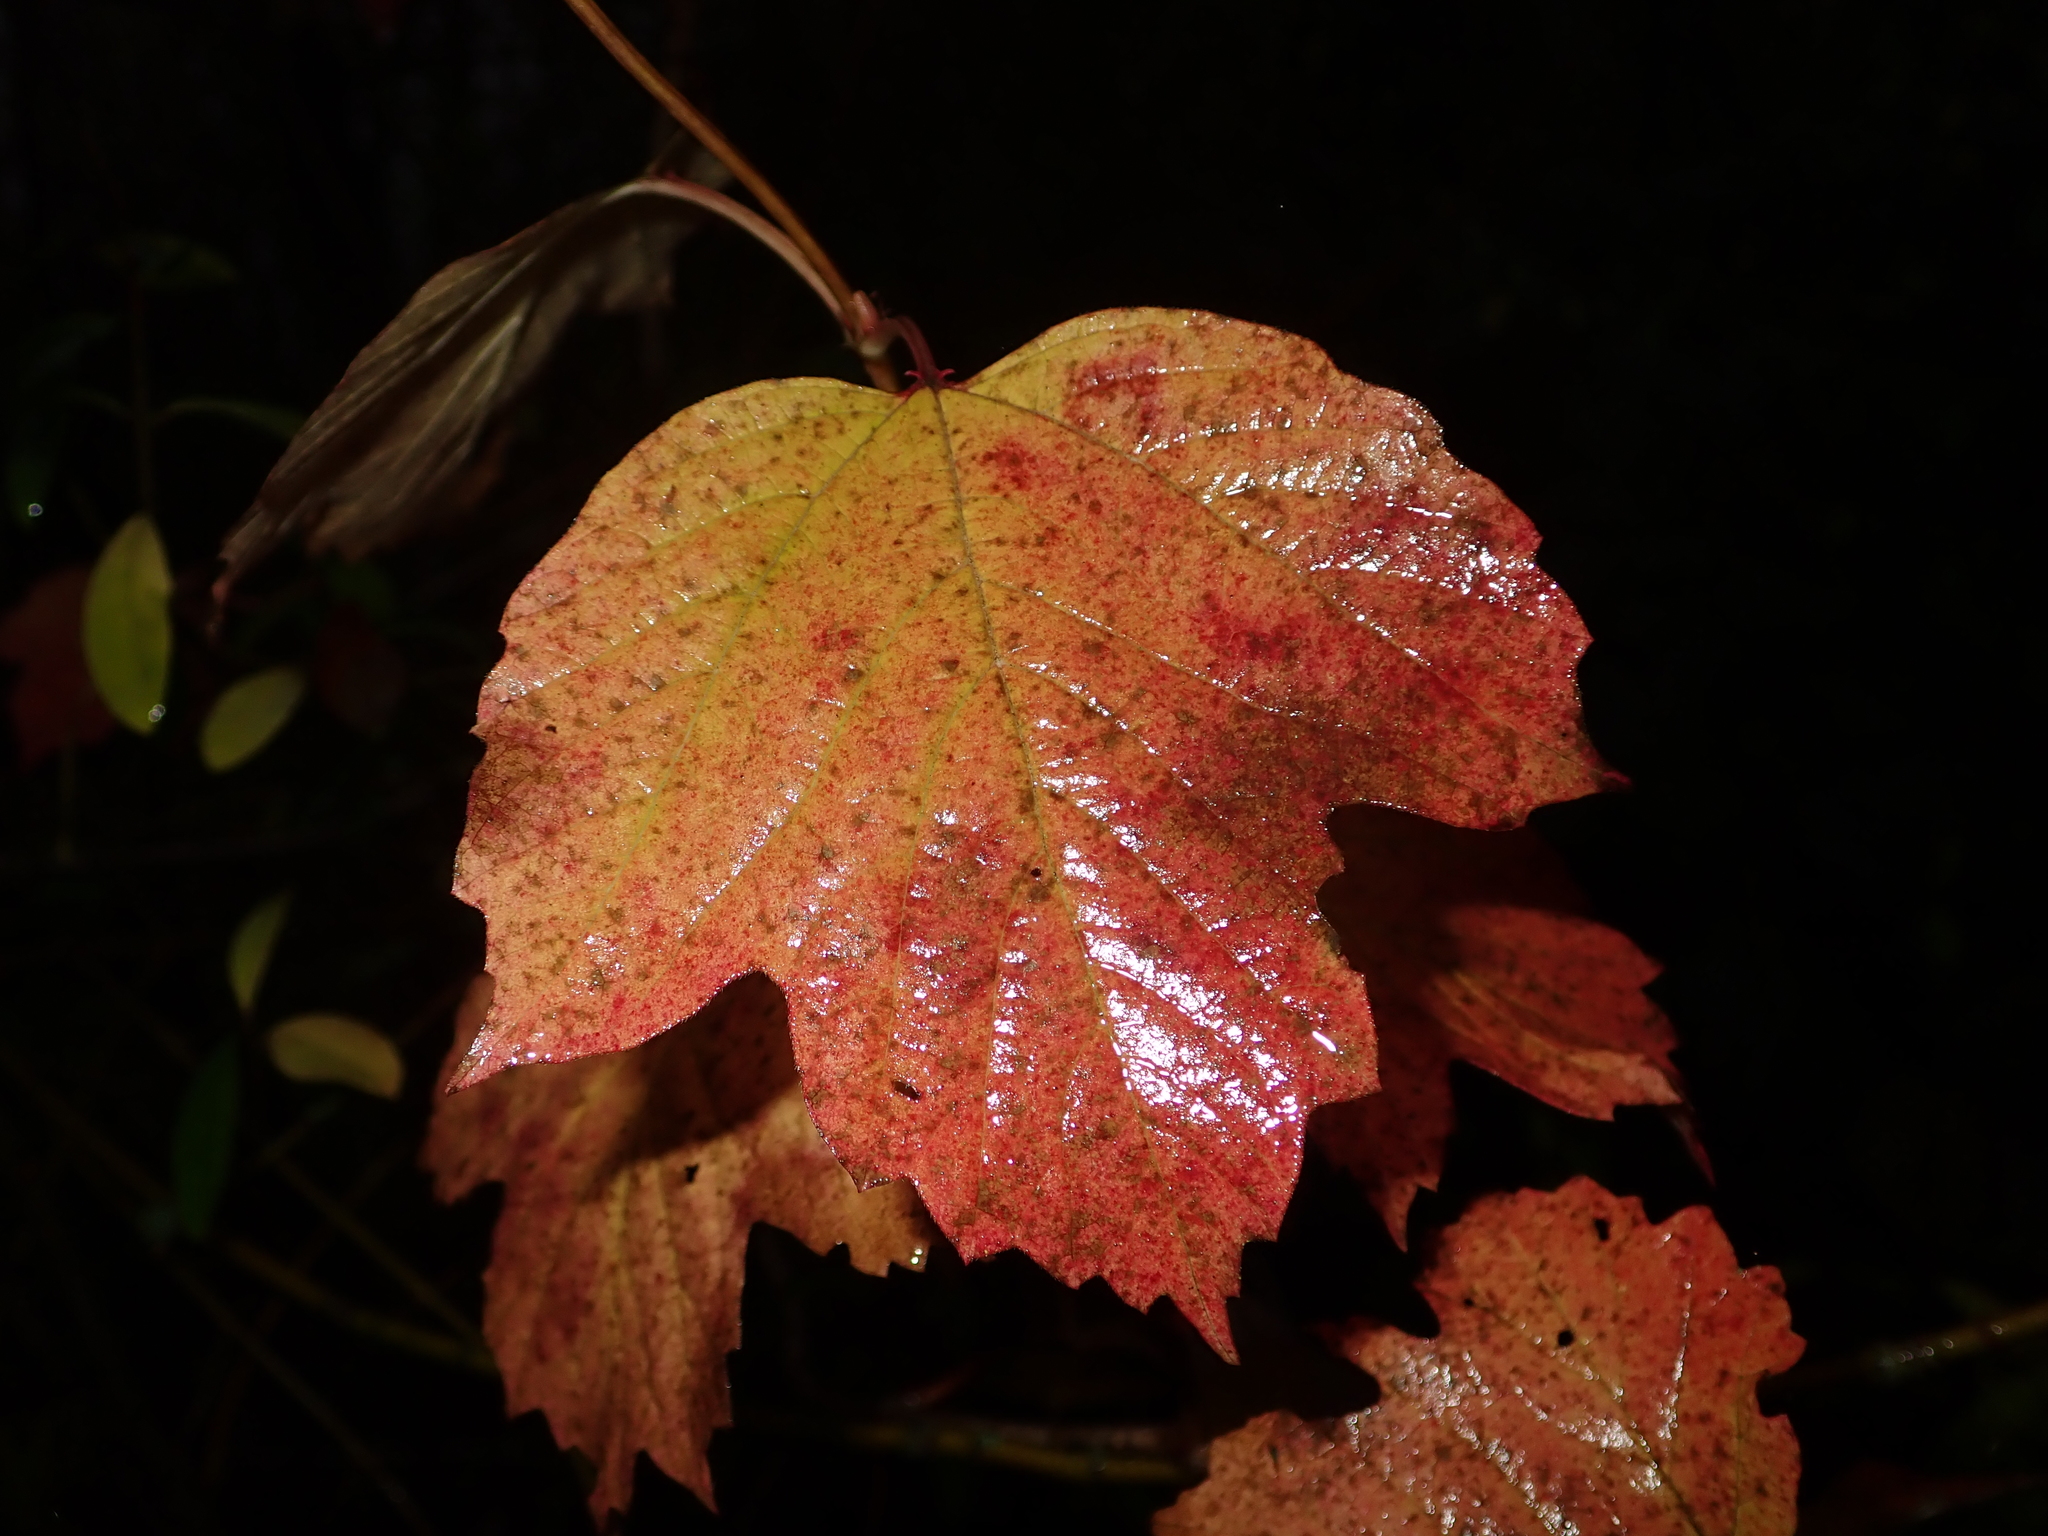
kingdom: Plantae
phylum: Tracheophyta
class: Magnoliopsida
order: Dipsacales
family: Viburnaceae
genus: Viburnum
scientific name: Viburnum opulus
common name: Guelder-rose
